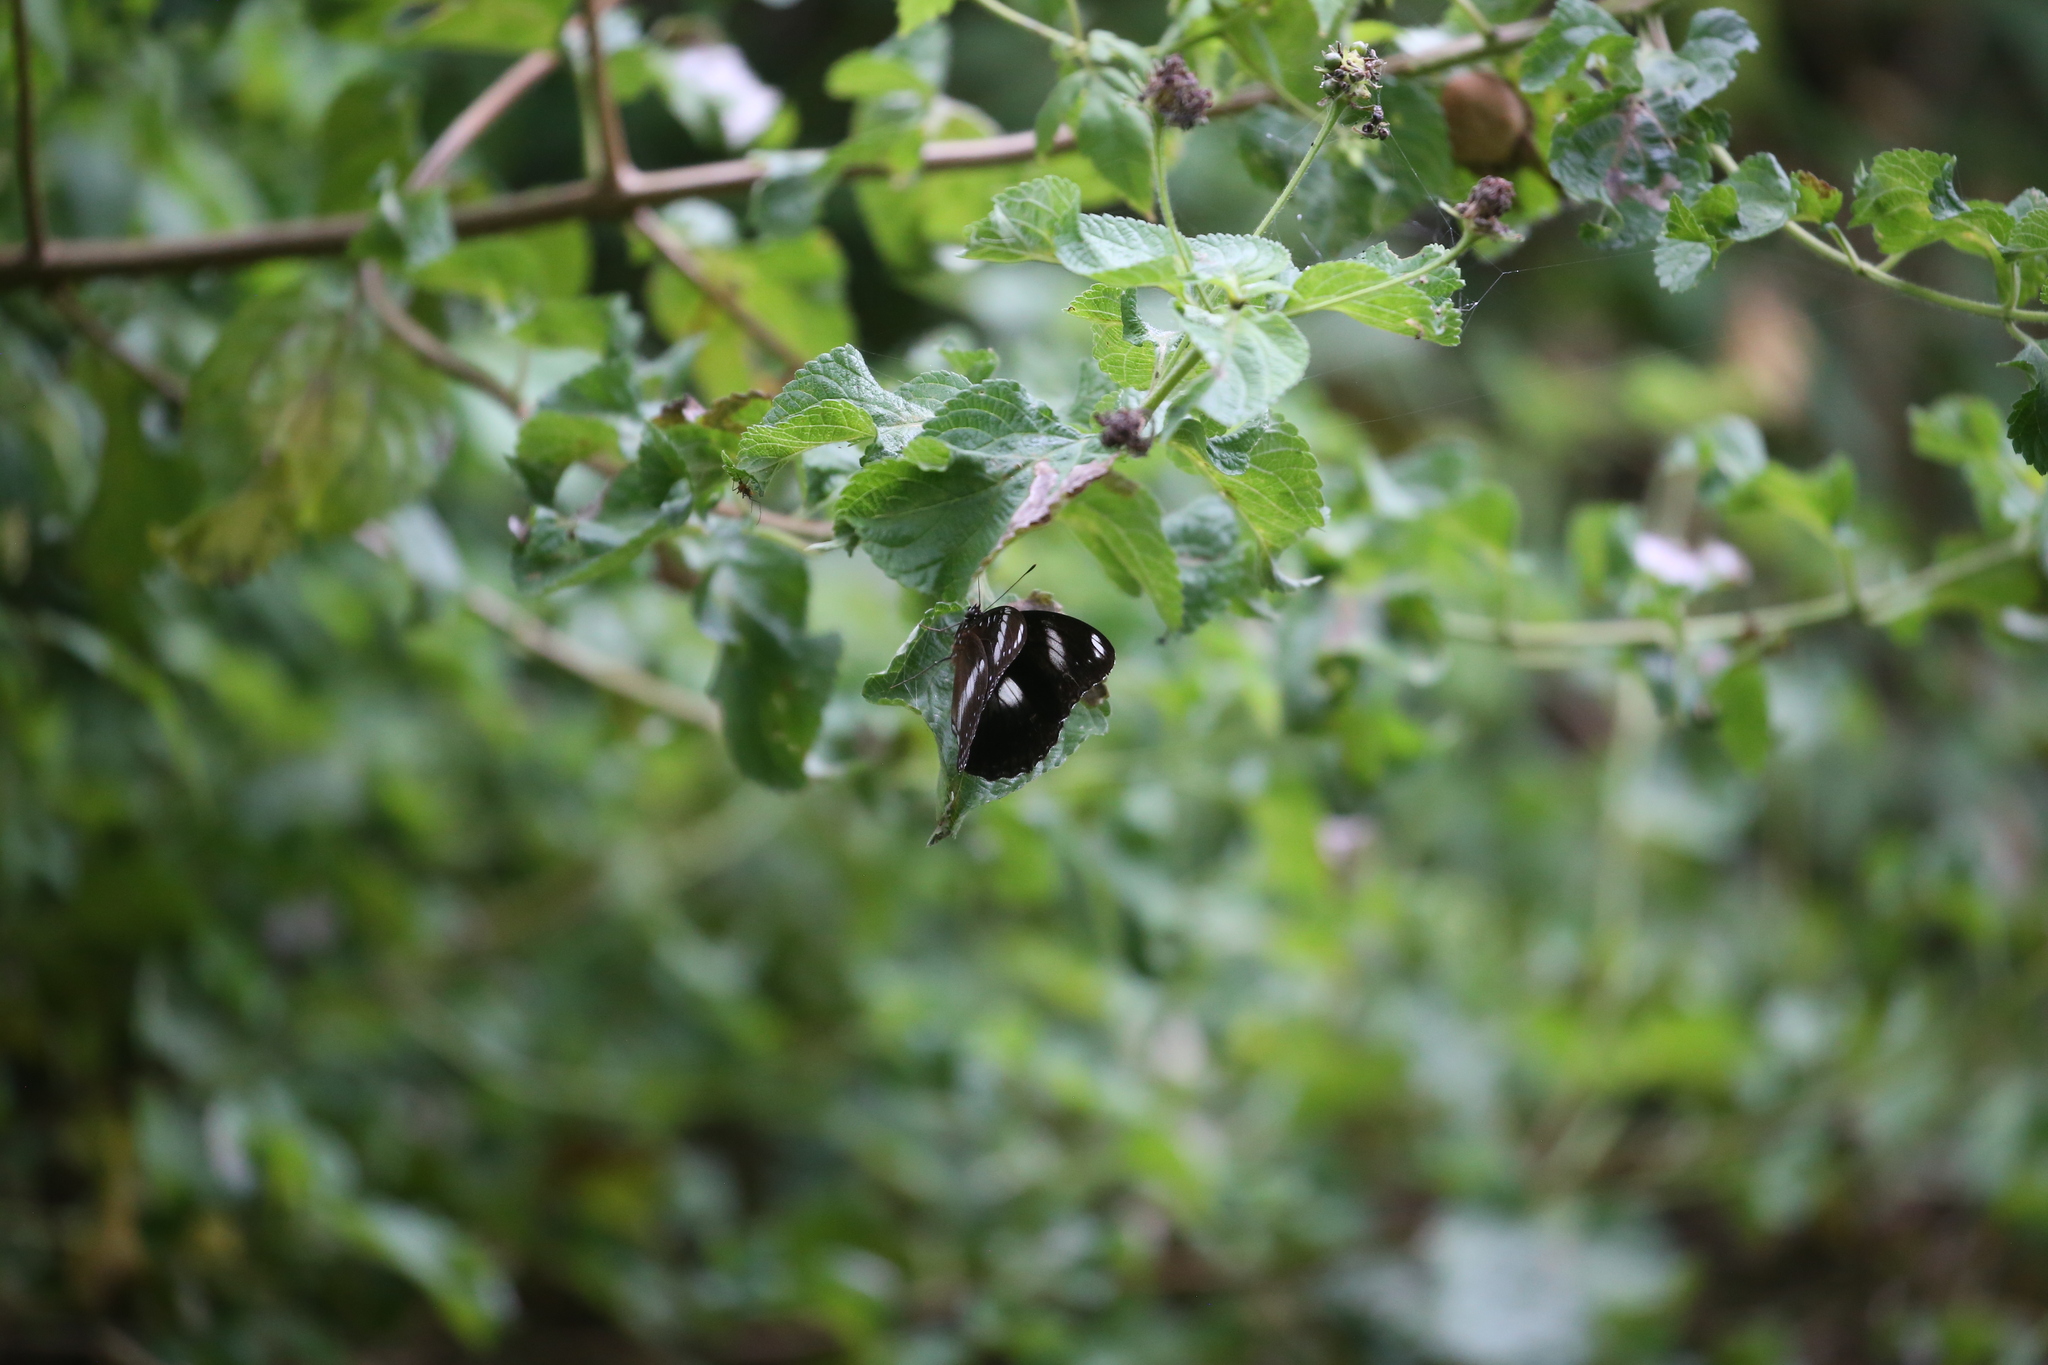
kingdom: Animalia
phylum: Arthropoda
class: Insecta
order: Lepidoptera
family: Nymphalidae
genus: Hypolimnas
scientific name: Hypolimnas bolina
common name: Great eggfly
